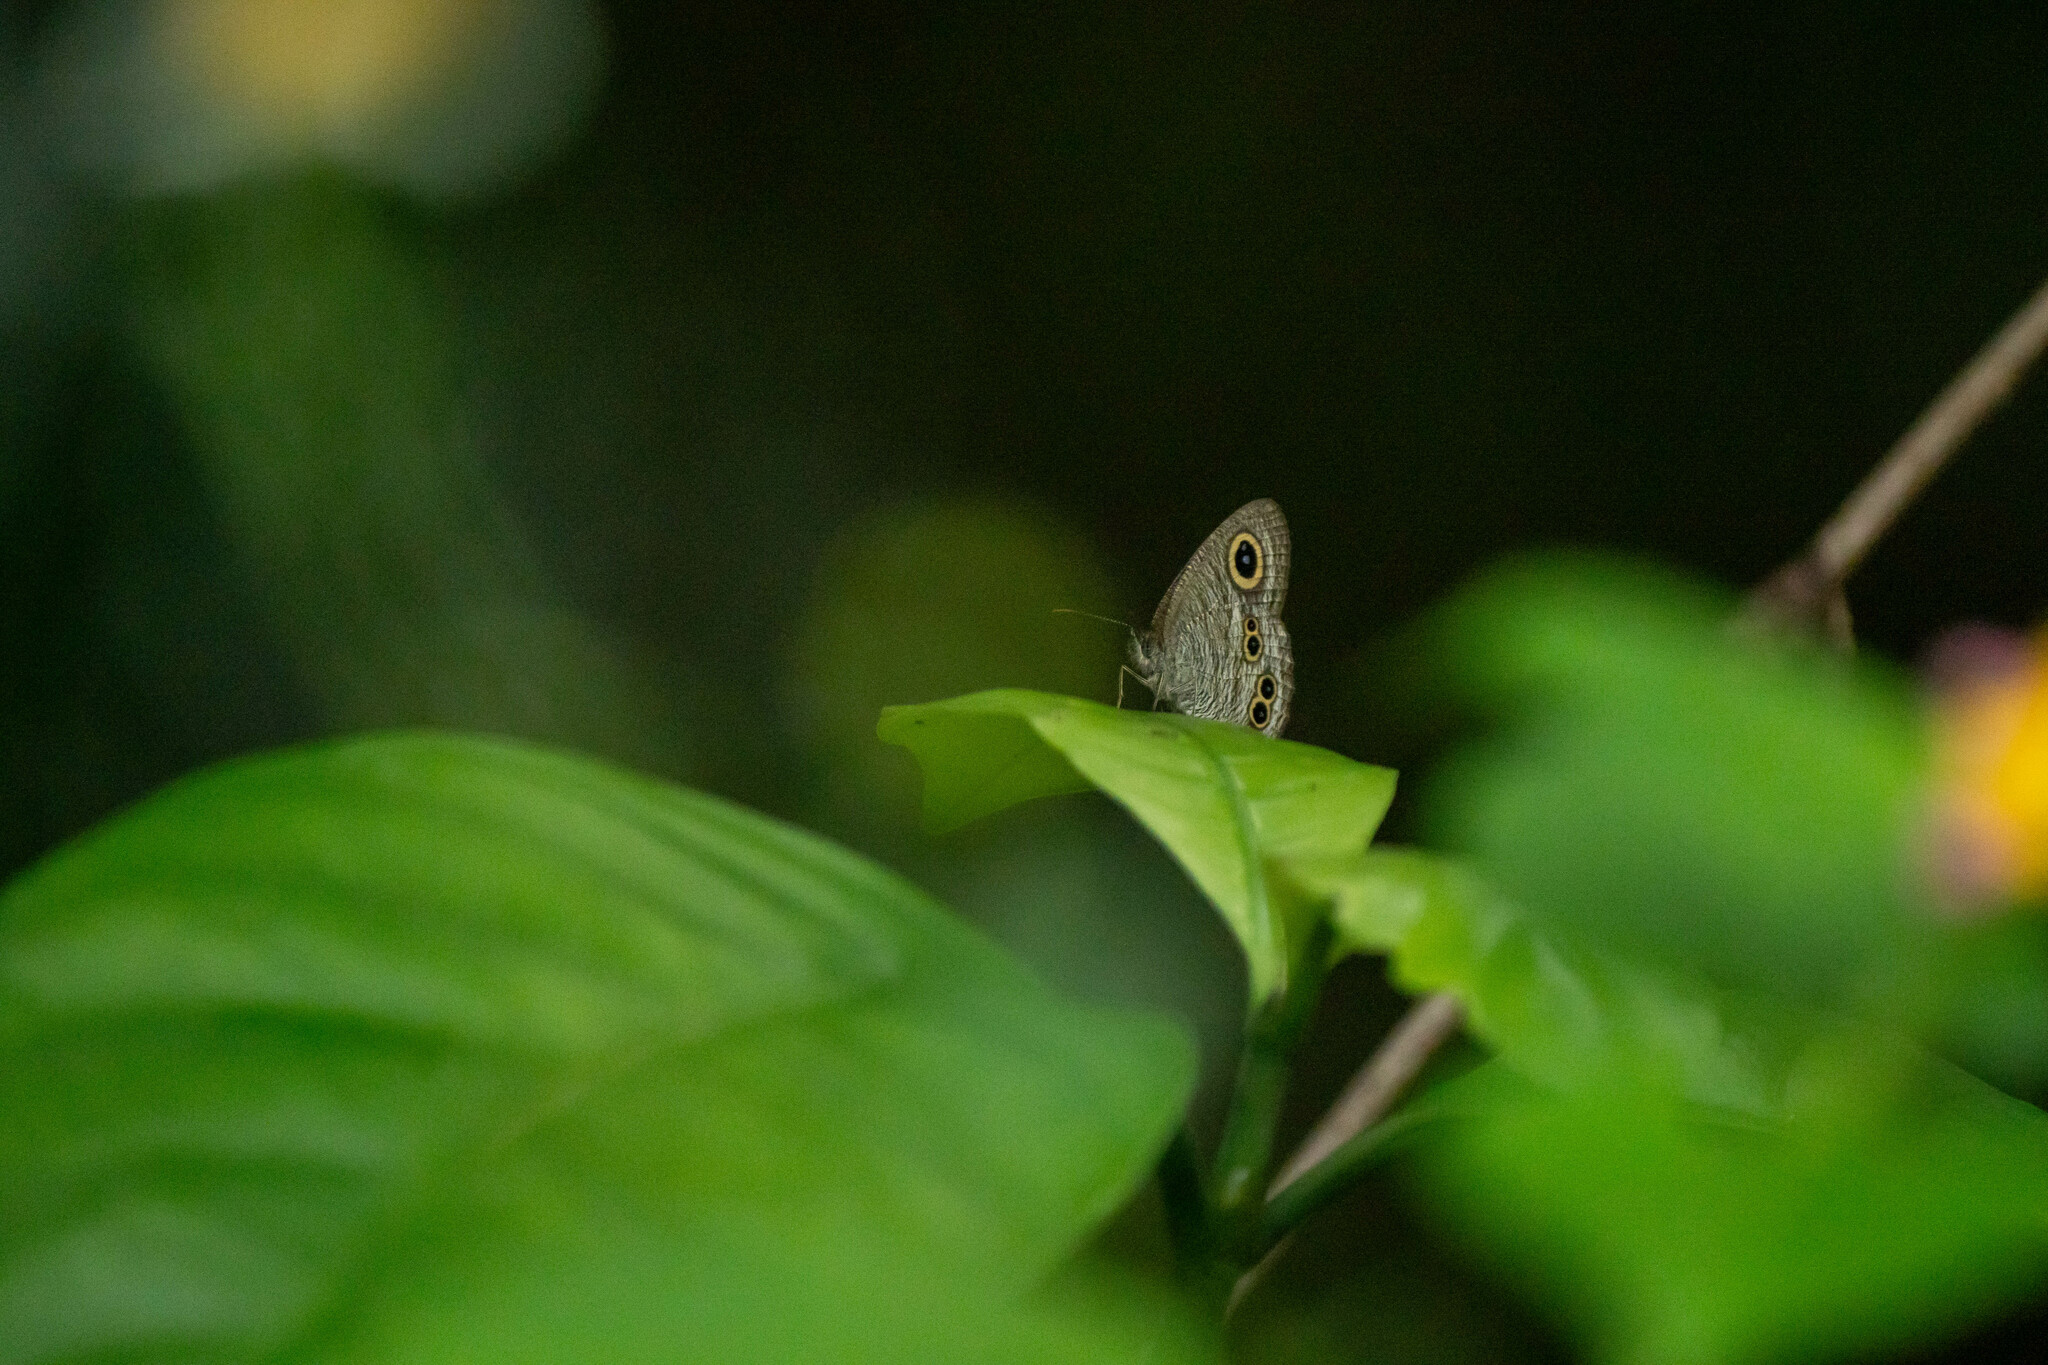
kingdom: Animalia
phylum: Arthropoda
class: Insecta
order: Lepidoptera
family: Nymphalidae
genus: Ypthima
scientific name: Ypthima baldus
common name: Common five-ring
